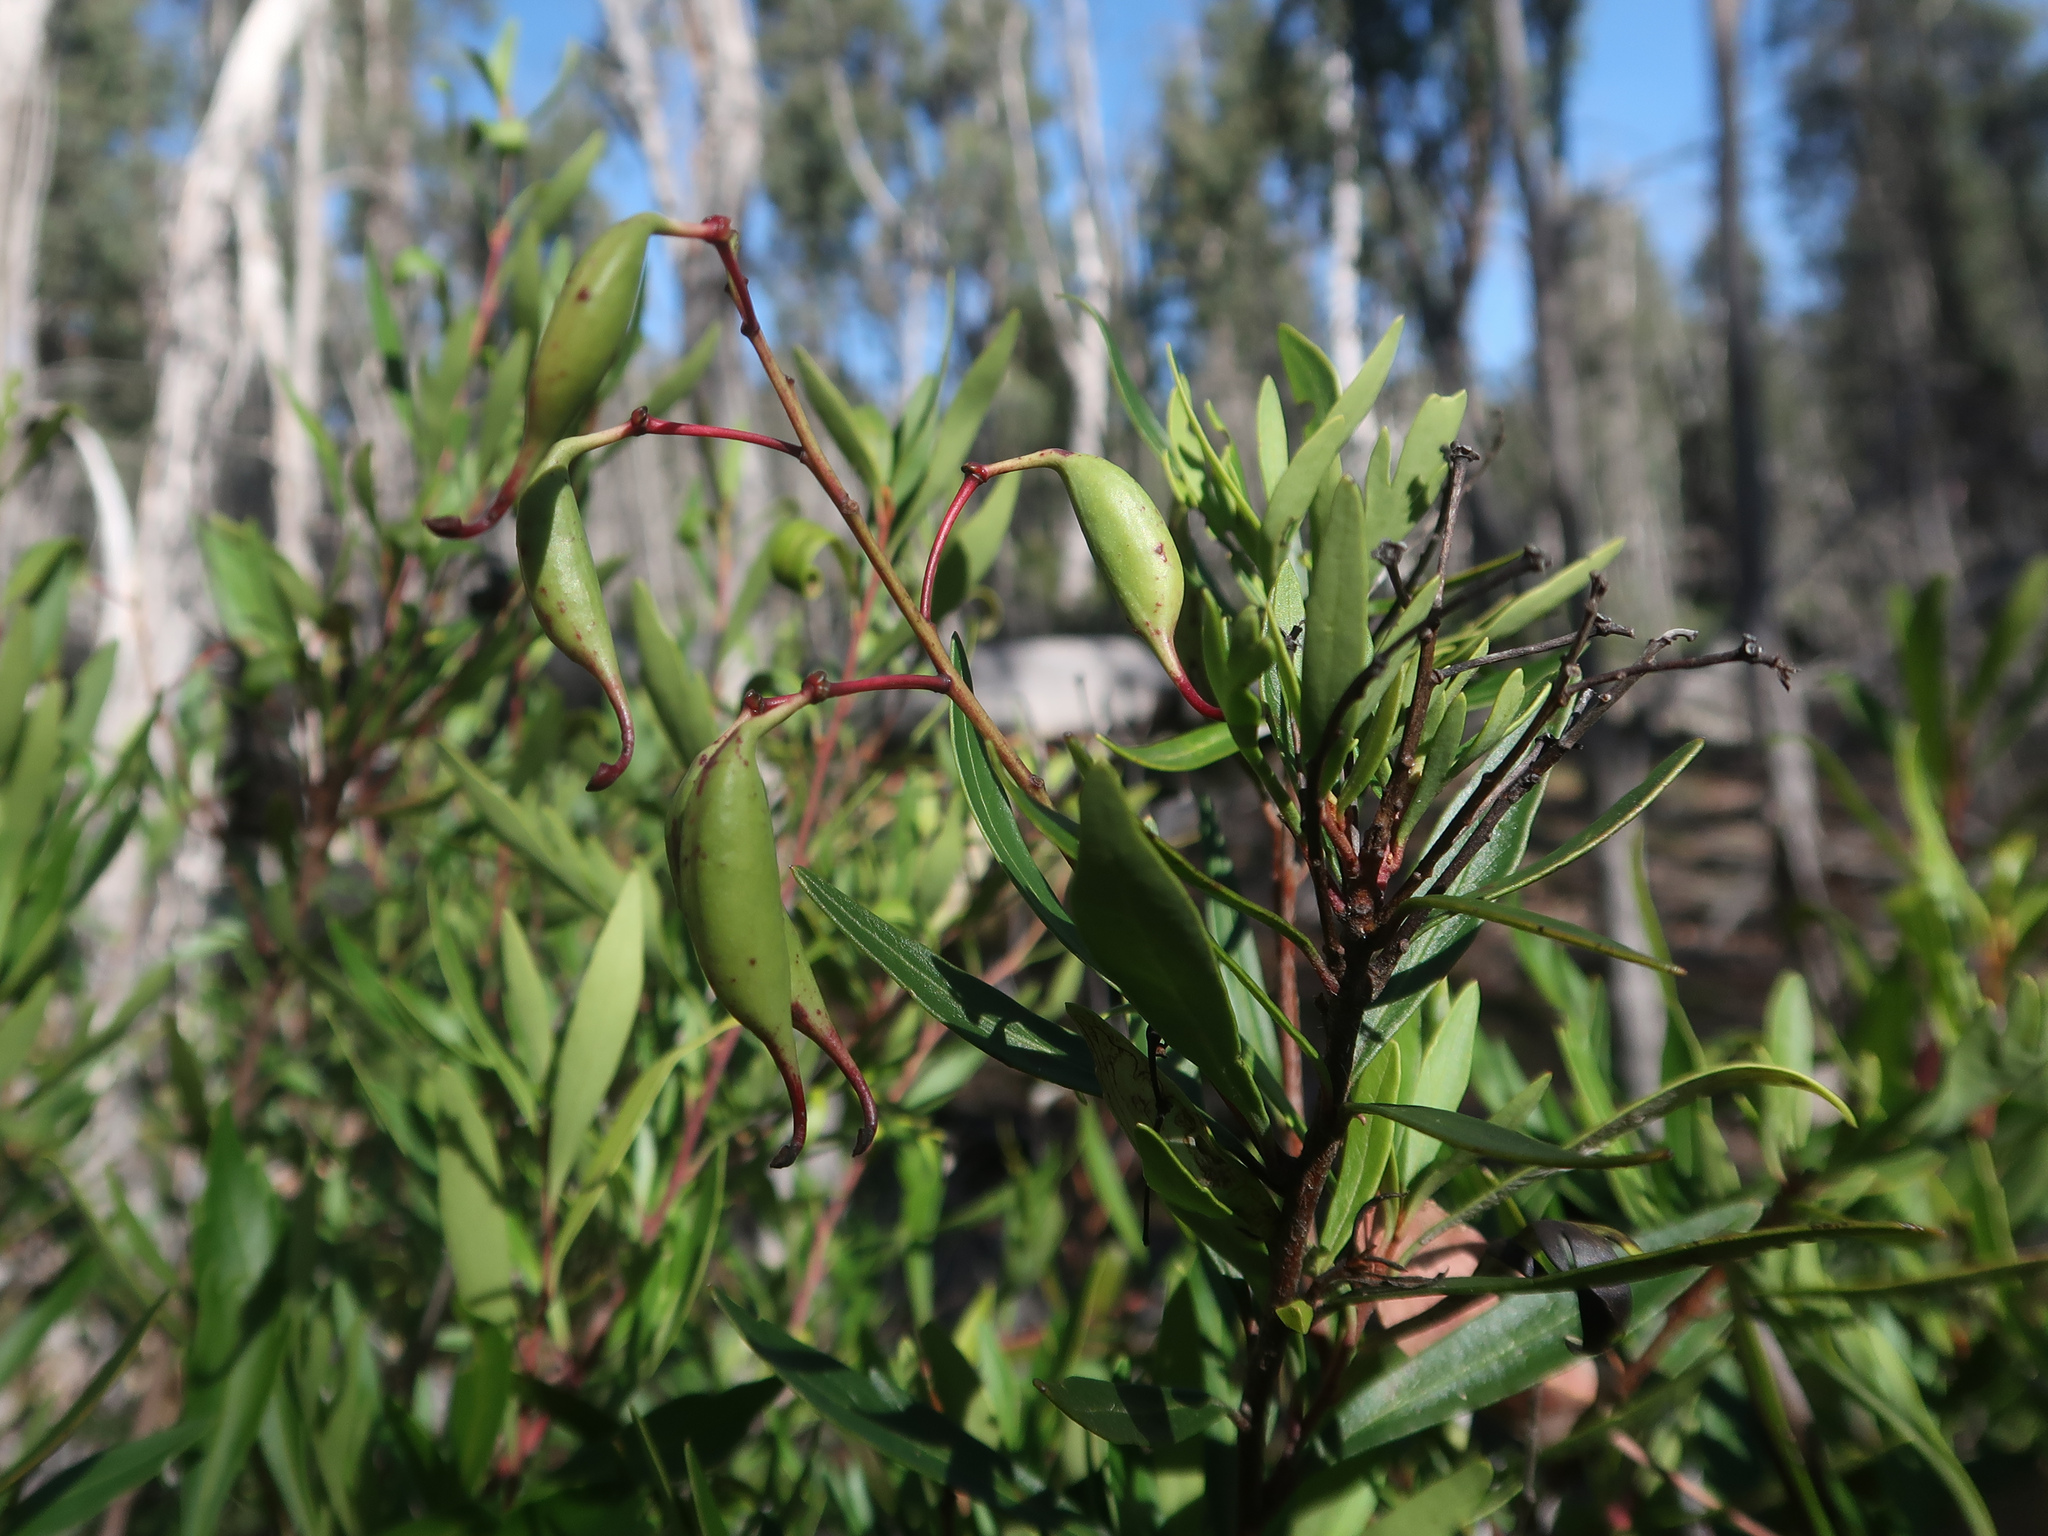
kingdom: Plantae
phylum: Tracheophyta
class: Magnoliopsida
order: Proteales
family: Proteaceae
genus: Lomatia
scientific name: Lomatia polymorpha
